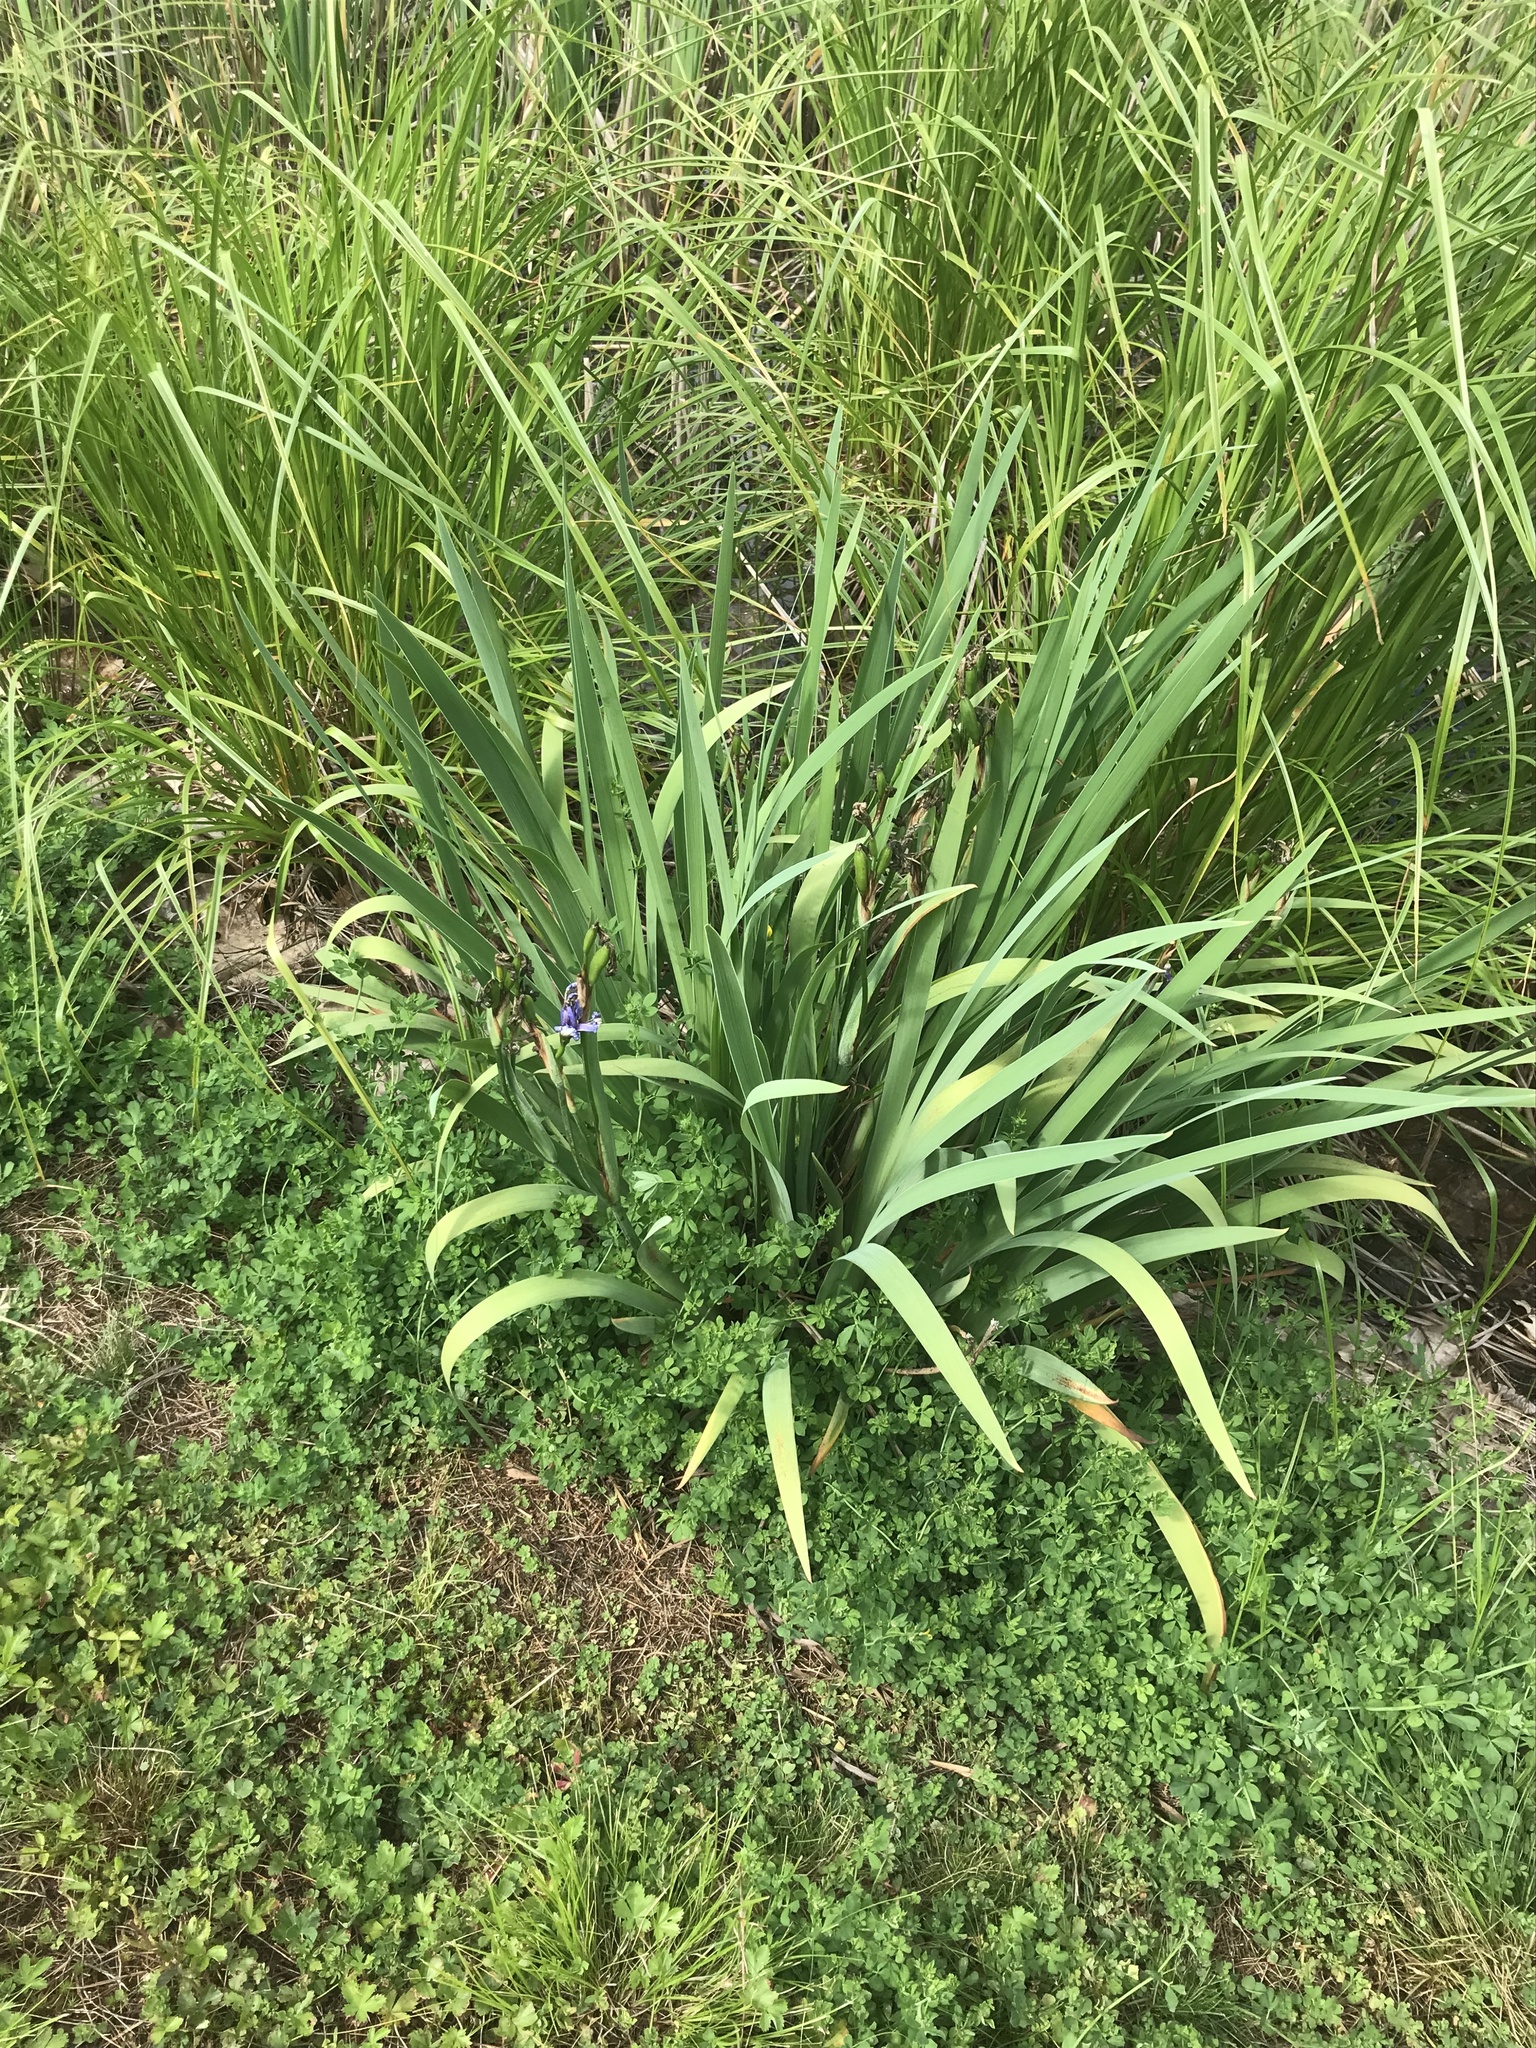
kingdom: Plantae
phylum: Tracheophyta
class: Liliopsida
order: Asparagales
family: Iridaceae
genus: Iris
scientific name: Iris versicolor
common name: Purple iris
